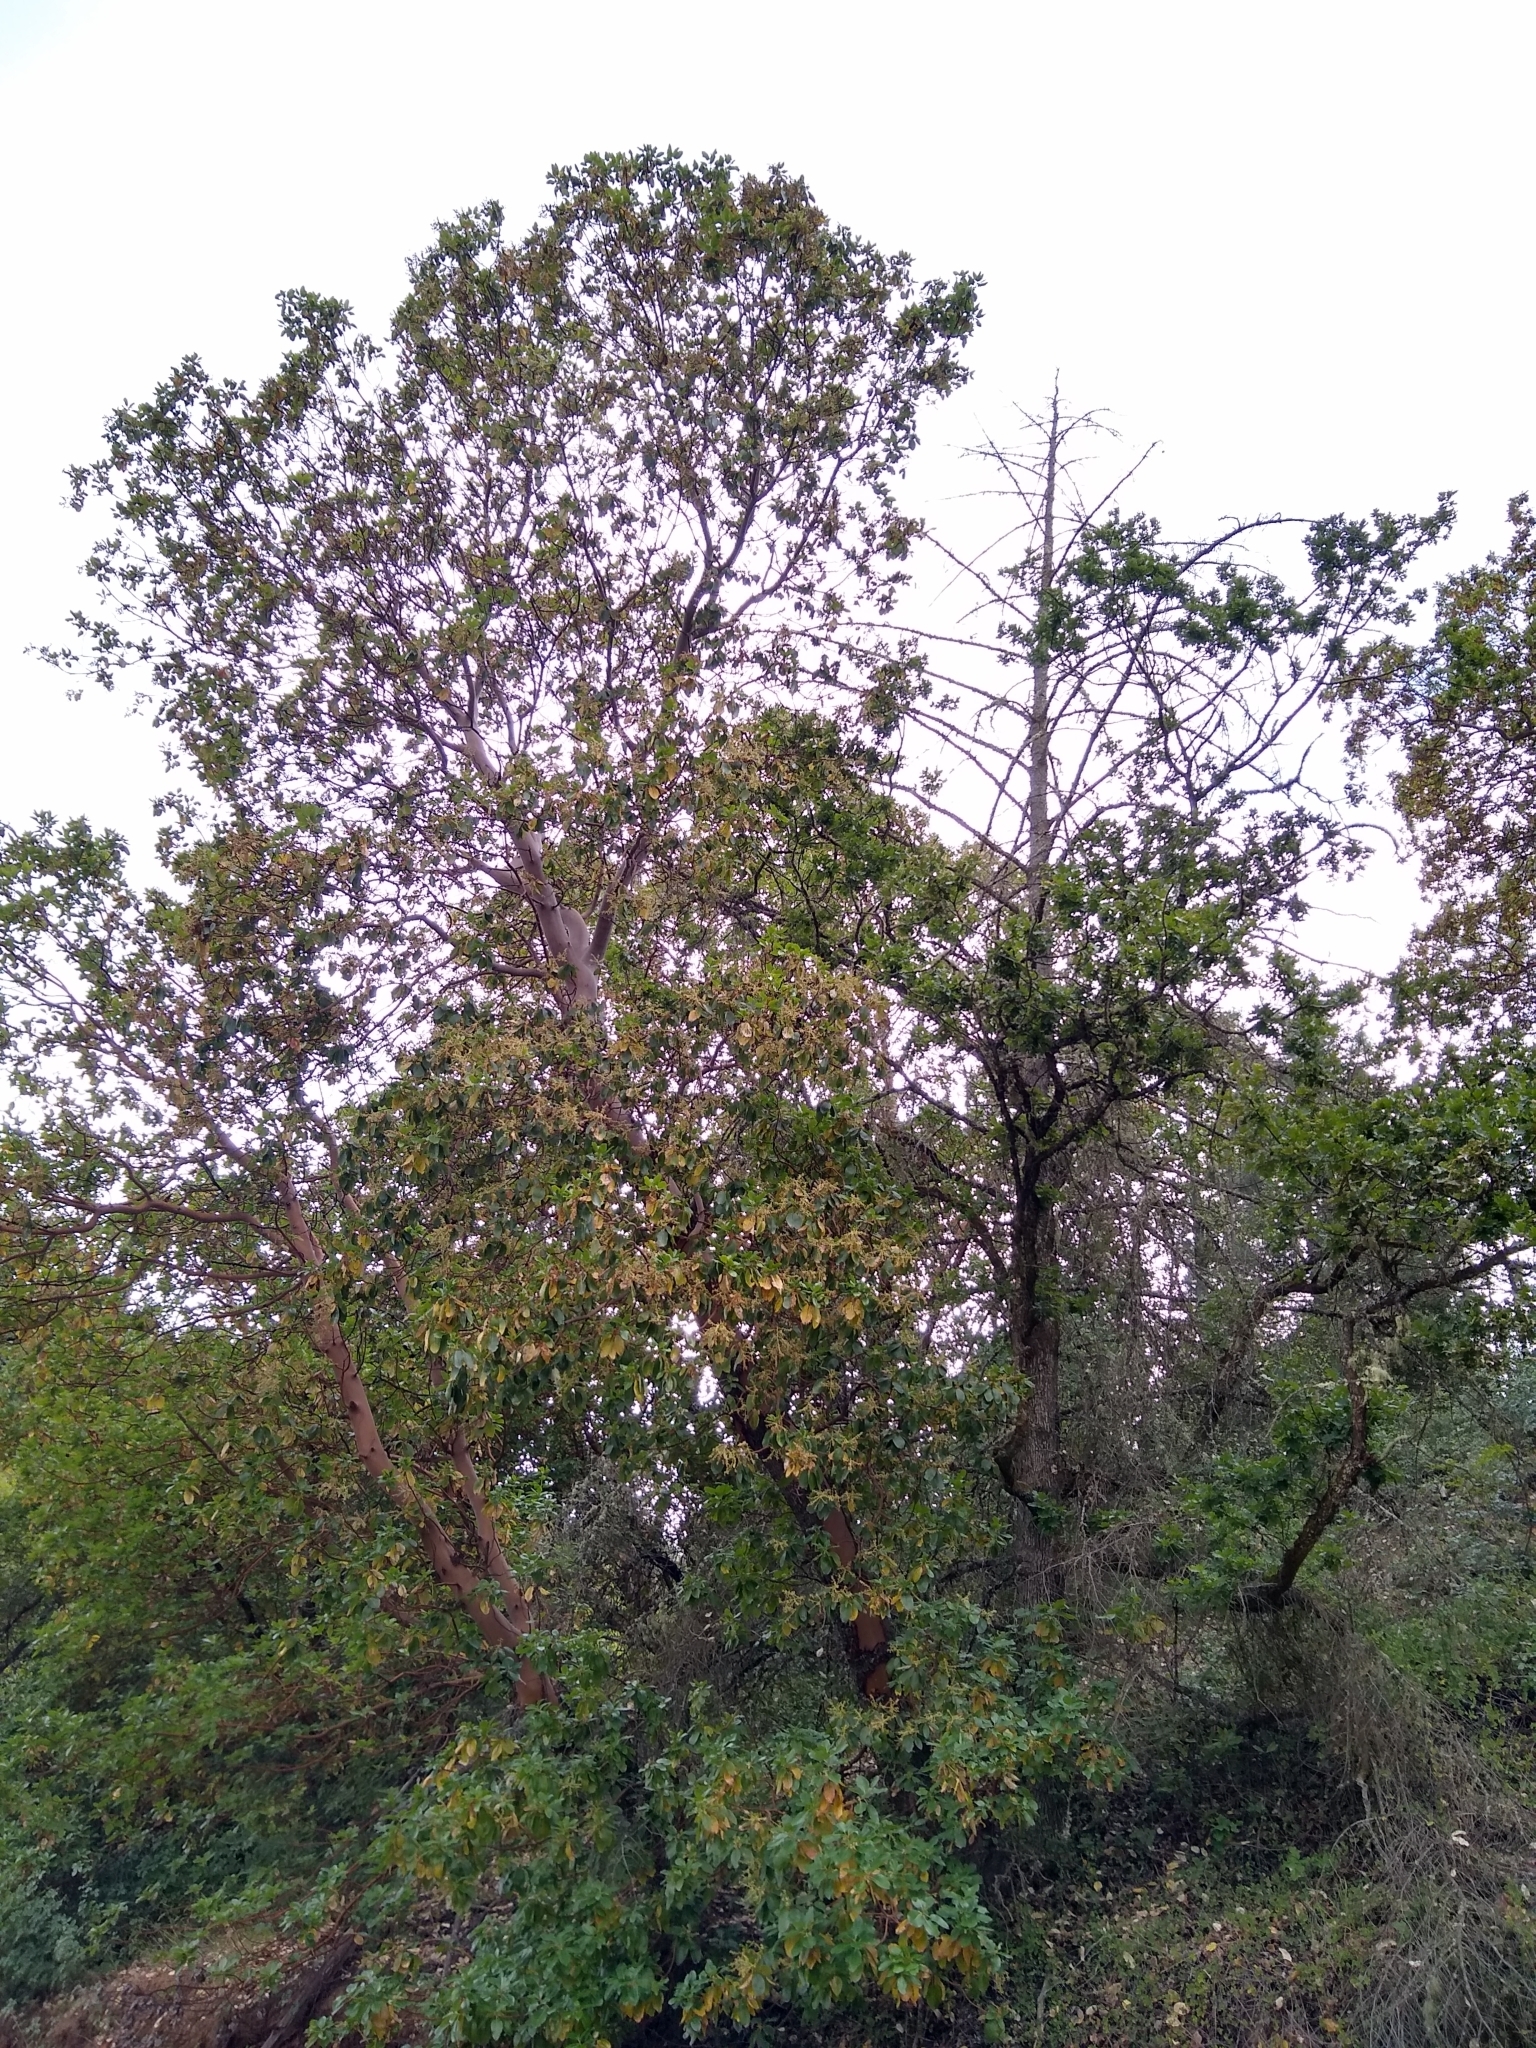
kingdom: Plantae
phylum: Tracheophyta
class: Magnoliopsida
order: Ericales
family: Ericaceae
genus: Arbutus
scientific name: Arbutus menziesii
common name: Pacific madrone
